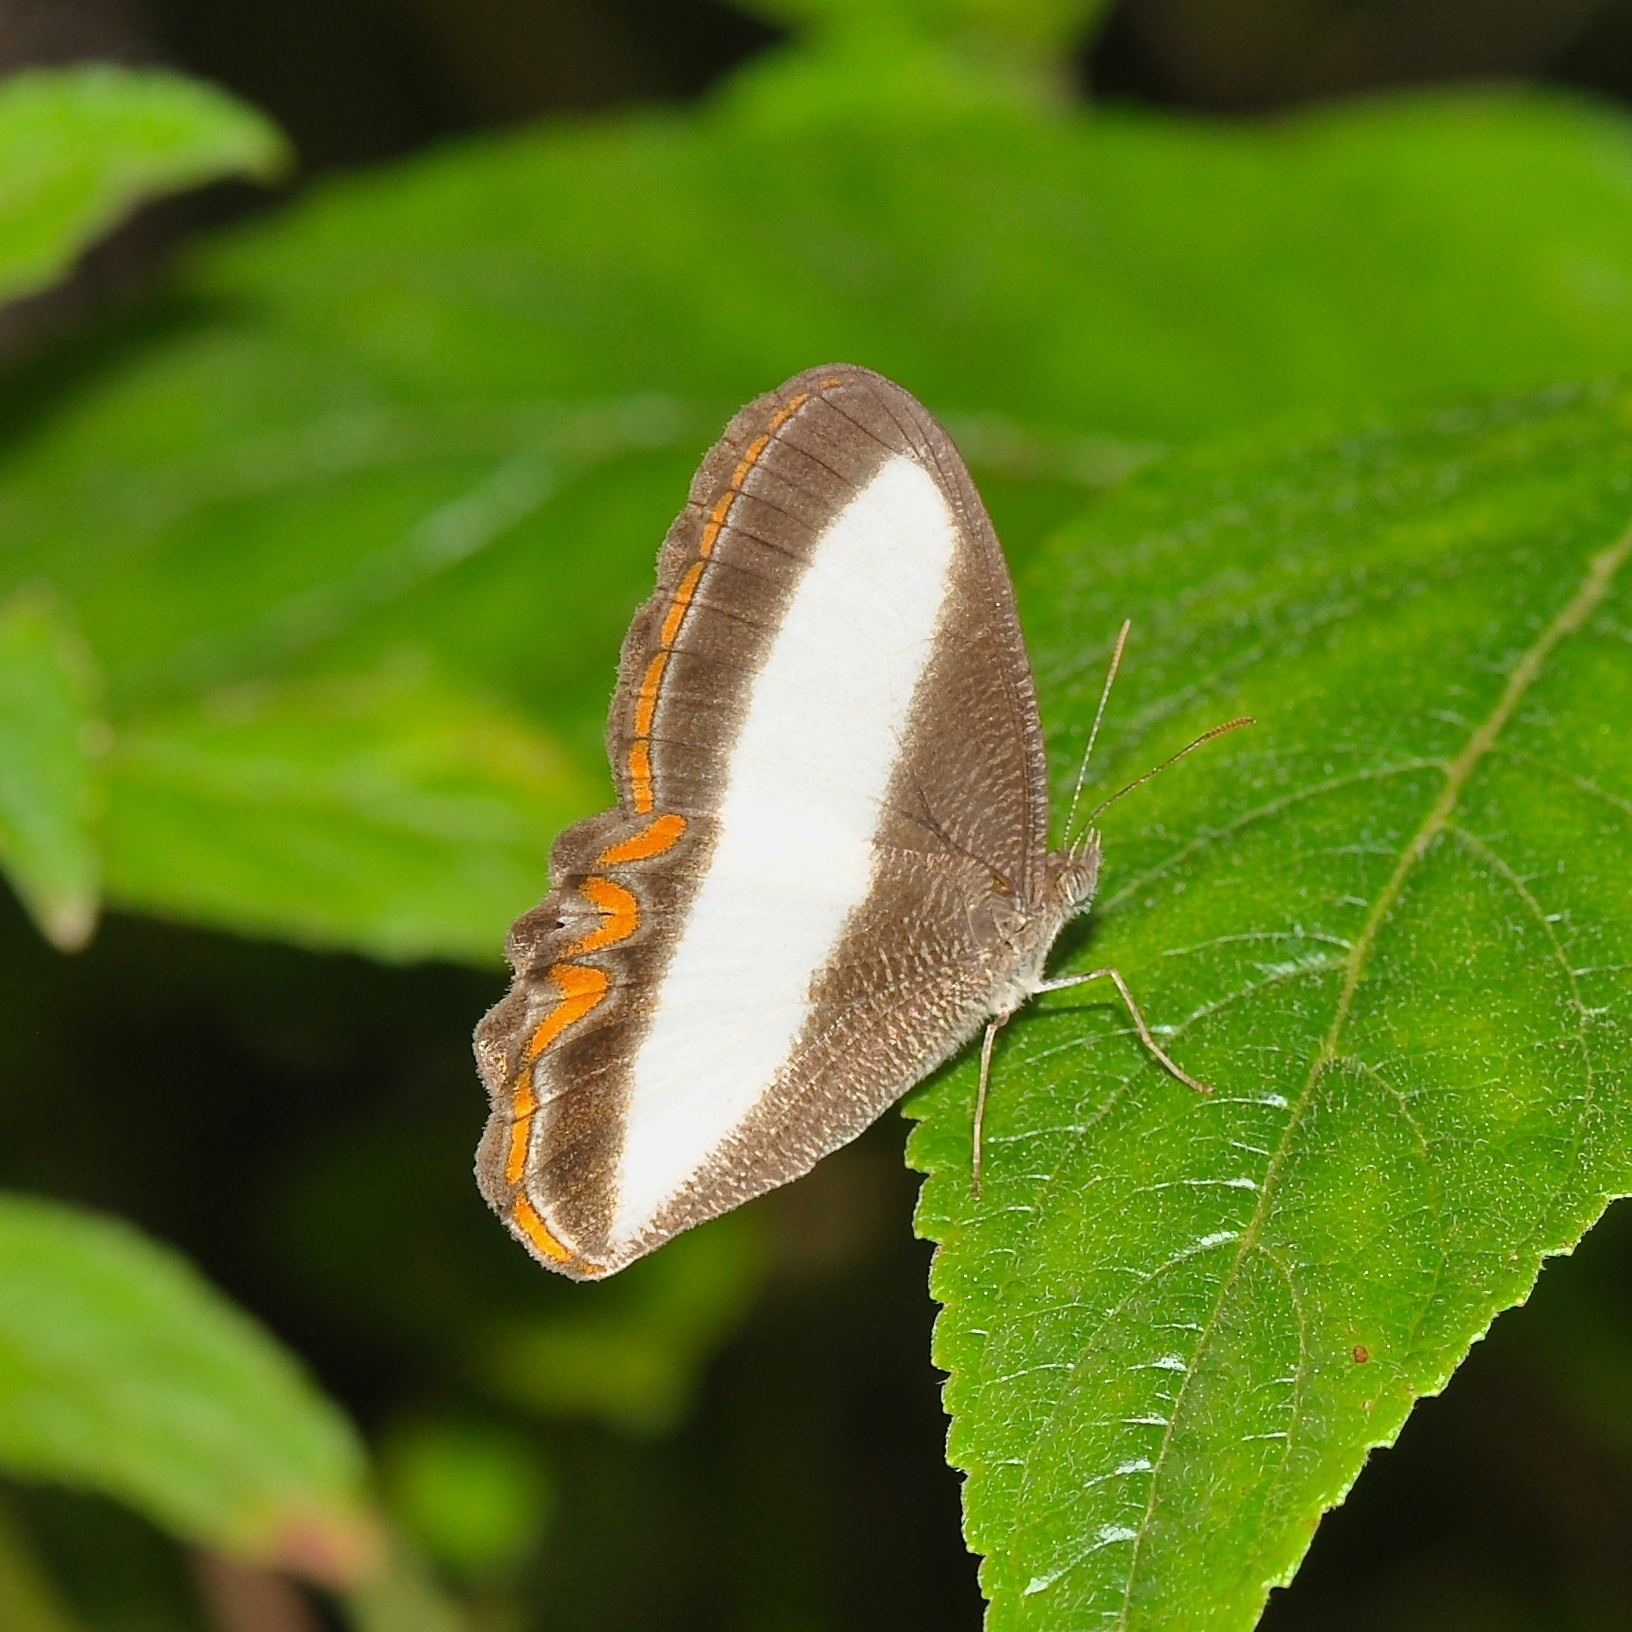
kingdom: Animalia
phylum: Arthropoda
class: Insecta
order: Lepidoptera
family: Nymphalidae
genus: Oressinoma
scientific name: Oressinoma typhla
